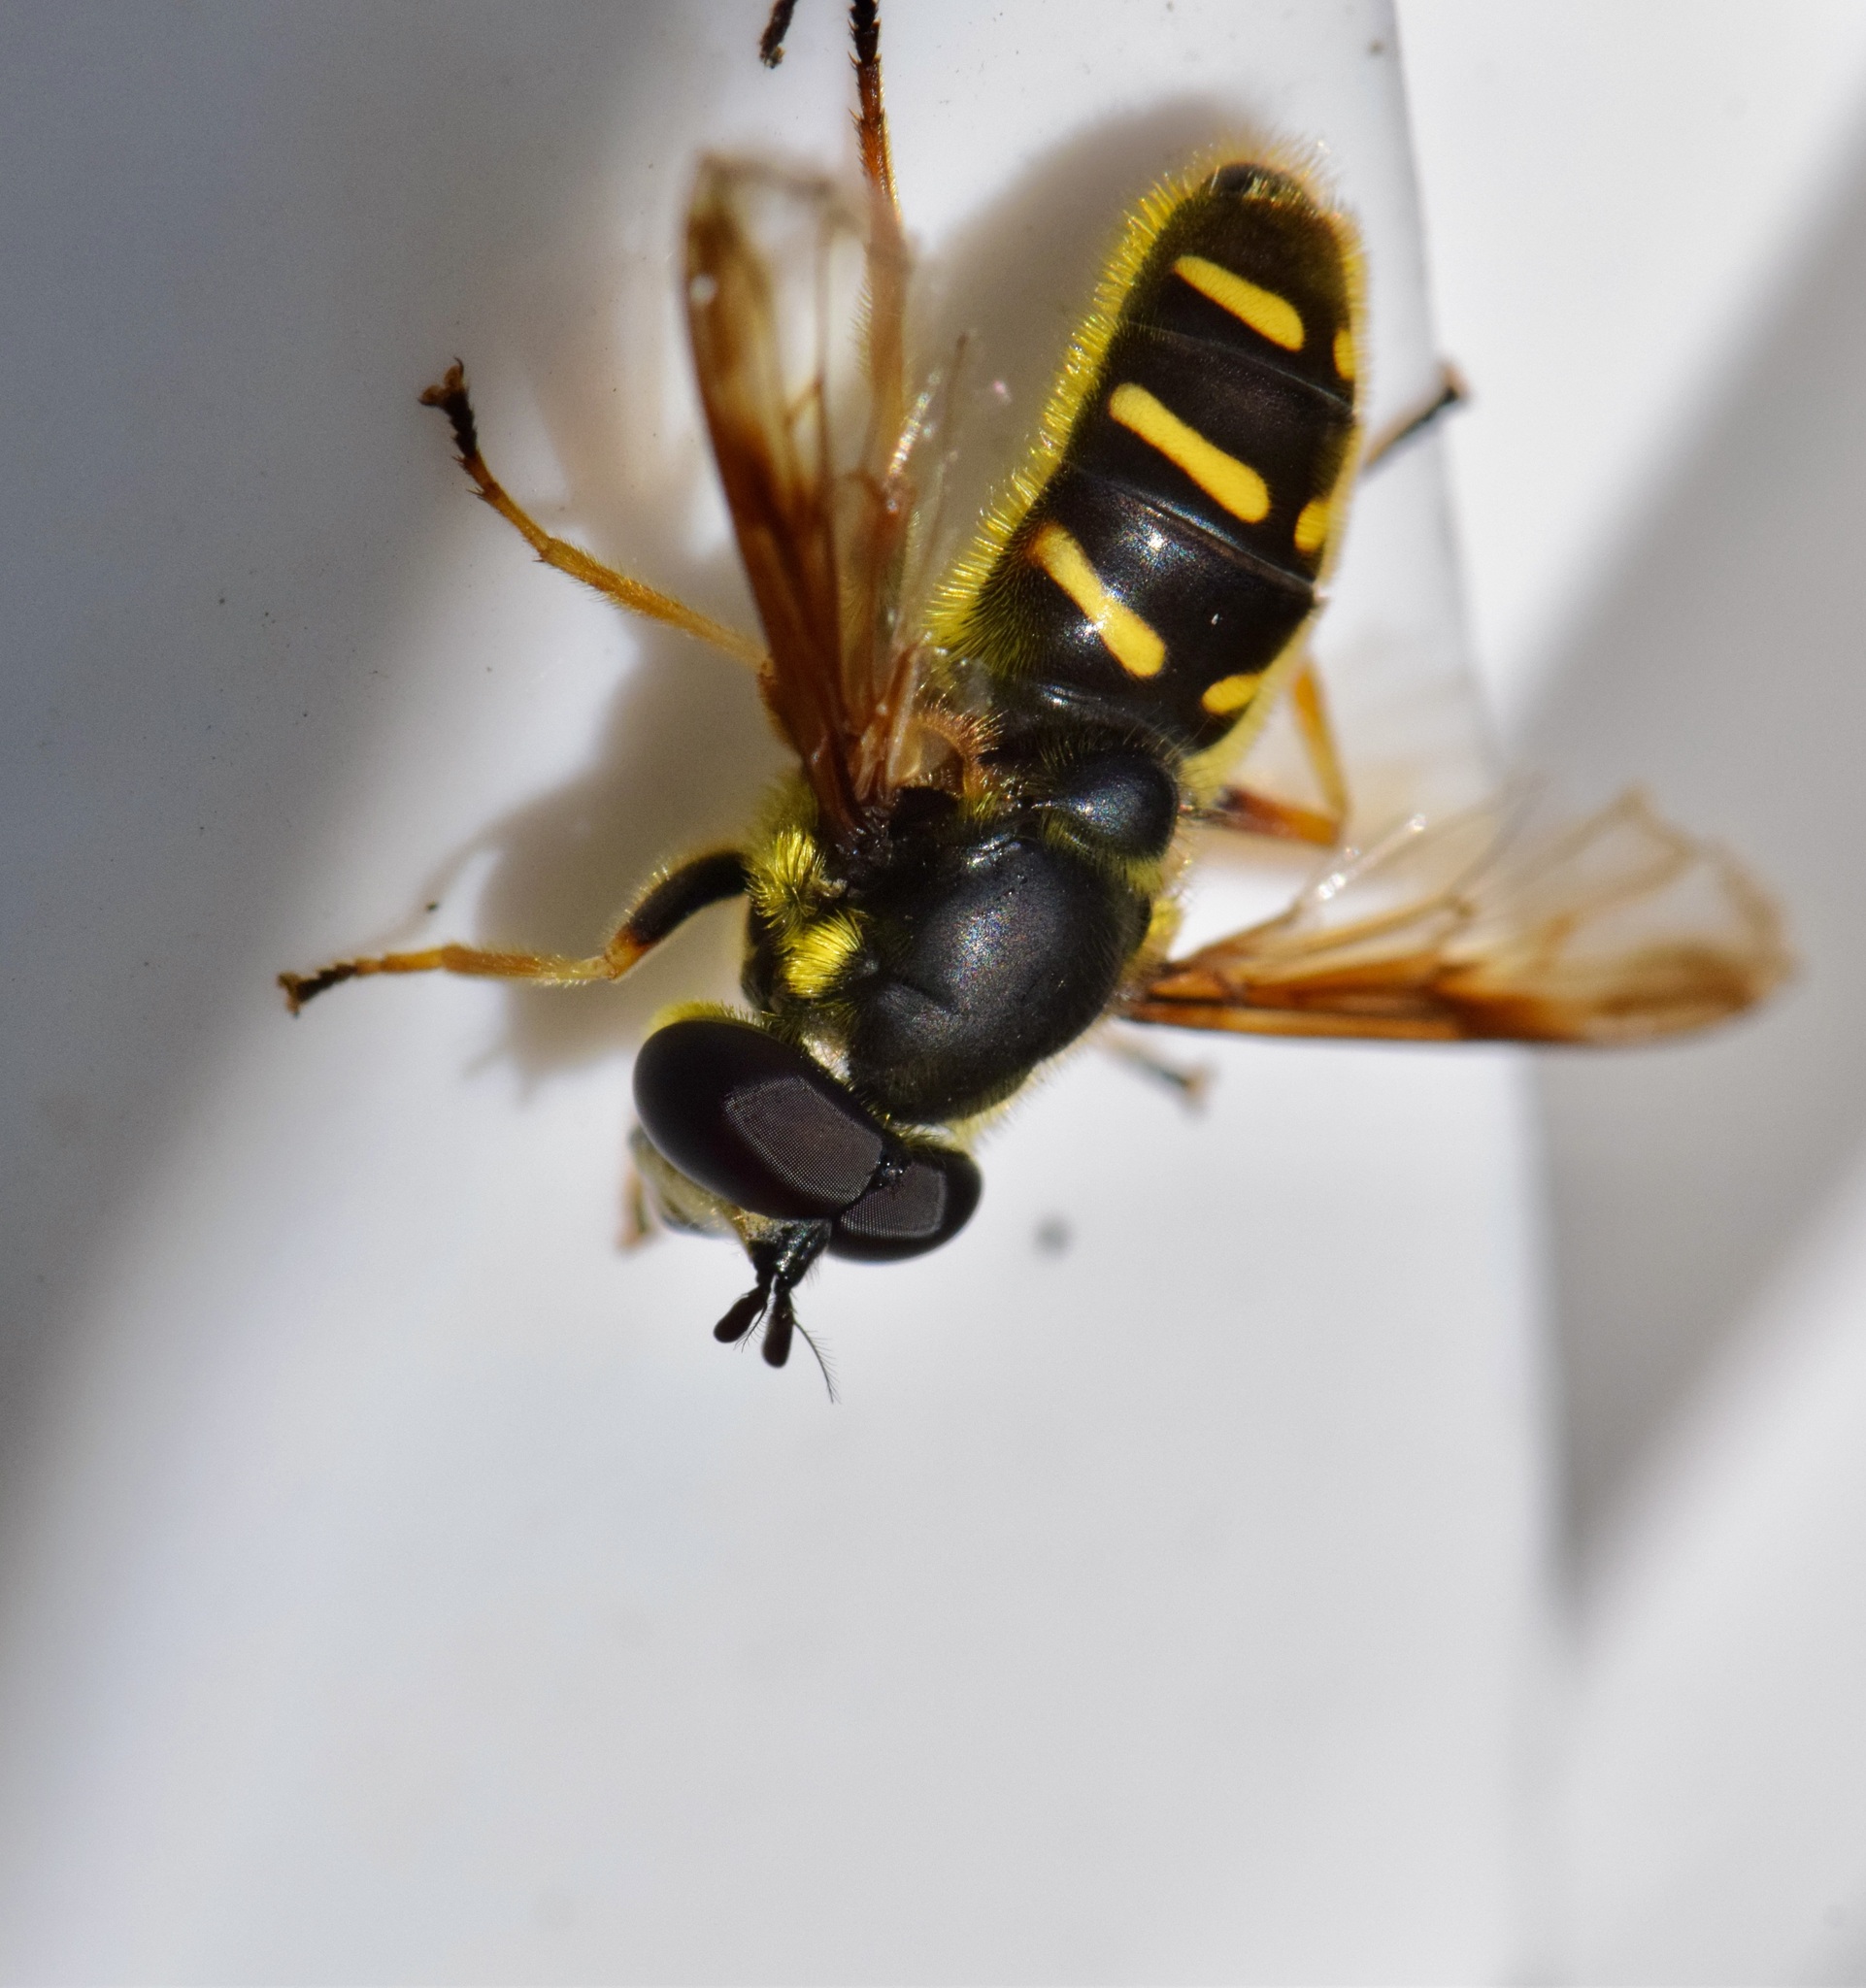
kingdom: Animalia
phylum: Arthropoda
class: Insecta
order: Diptera
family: Syrphidae
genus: Sericomyia
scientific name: Sericomyia chrysotoxoides
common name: Oblique-banded pond fly
